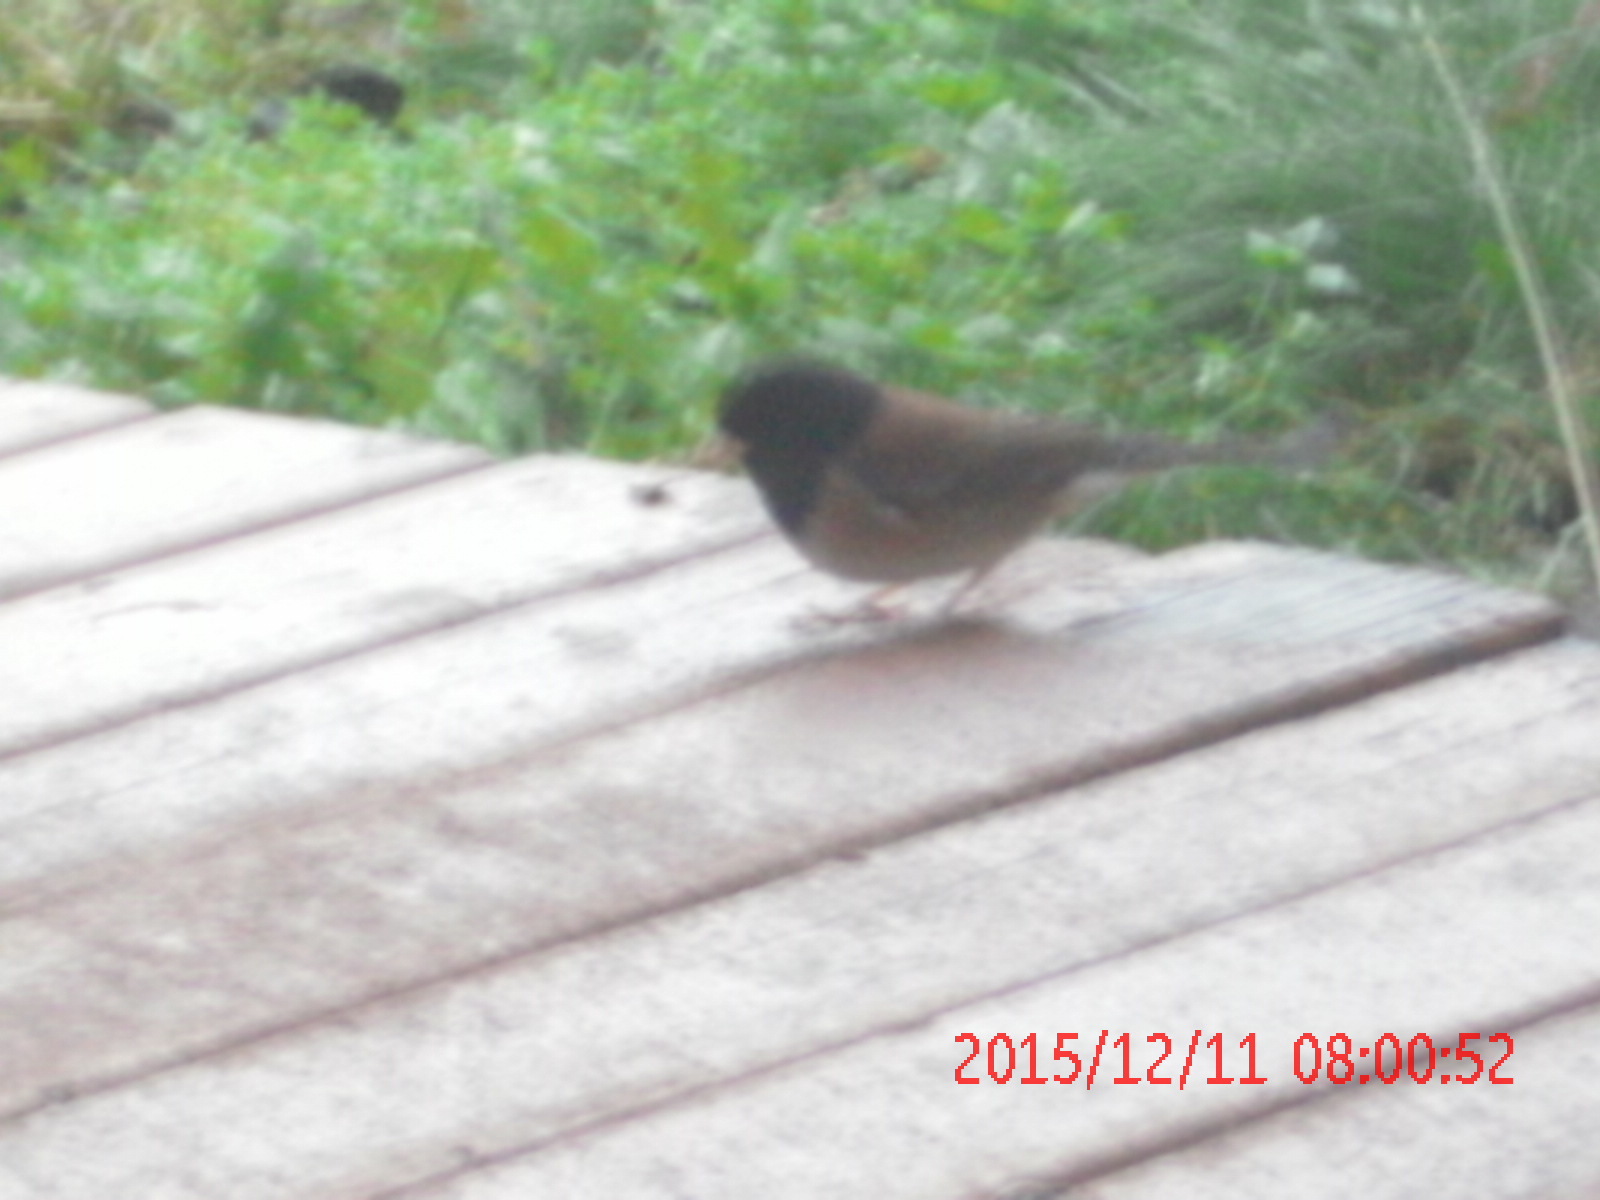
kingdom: Animalia
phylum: Chordata
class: Aves
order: Passeriformes
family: Passerellidae
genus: Junco
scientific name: Junco hyemalis
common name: Dark-eyed junco
